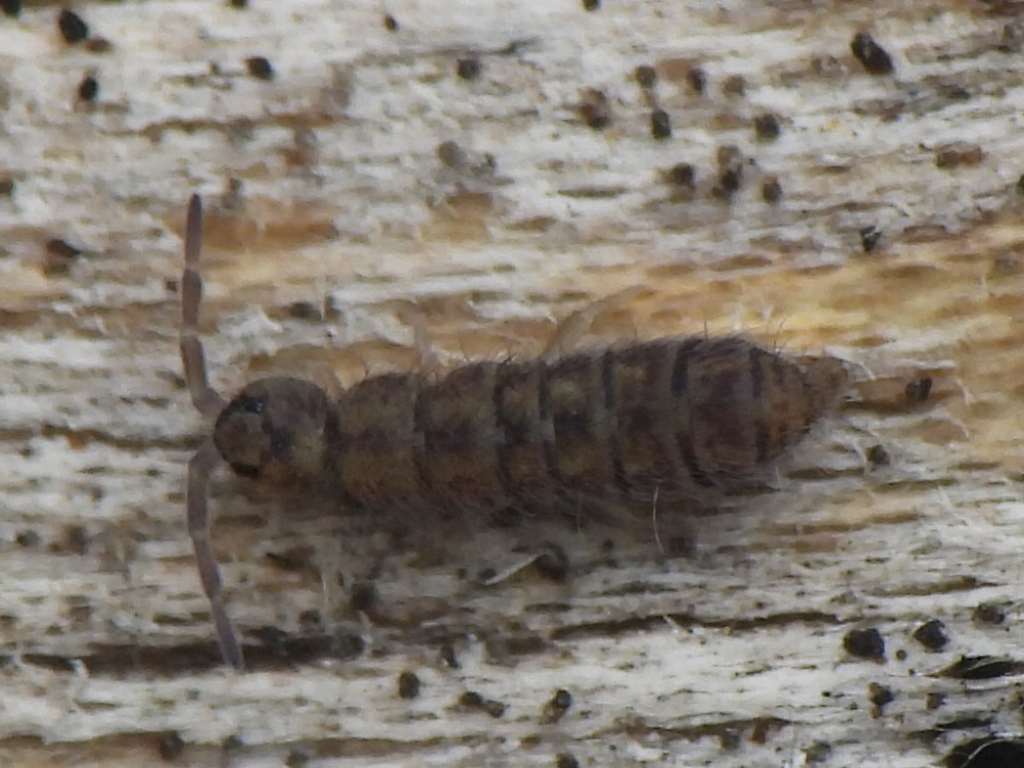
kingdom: Animalia
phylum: Arthropoda
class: Collembola
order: Entomobryomorpha
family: Isotomidae
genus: Isotoma
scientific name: Isotoma delta
